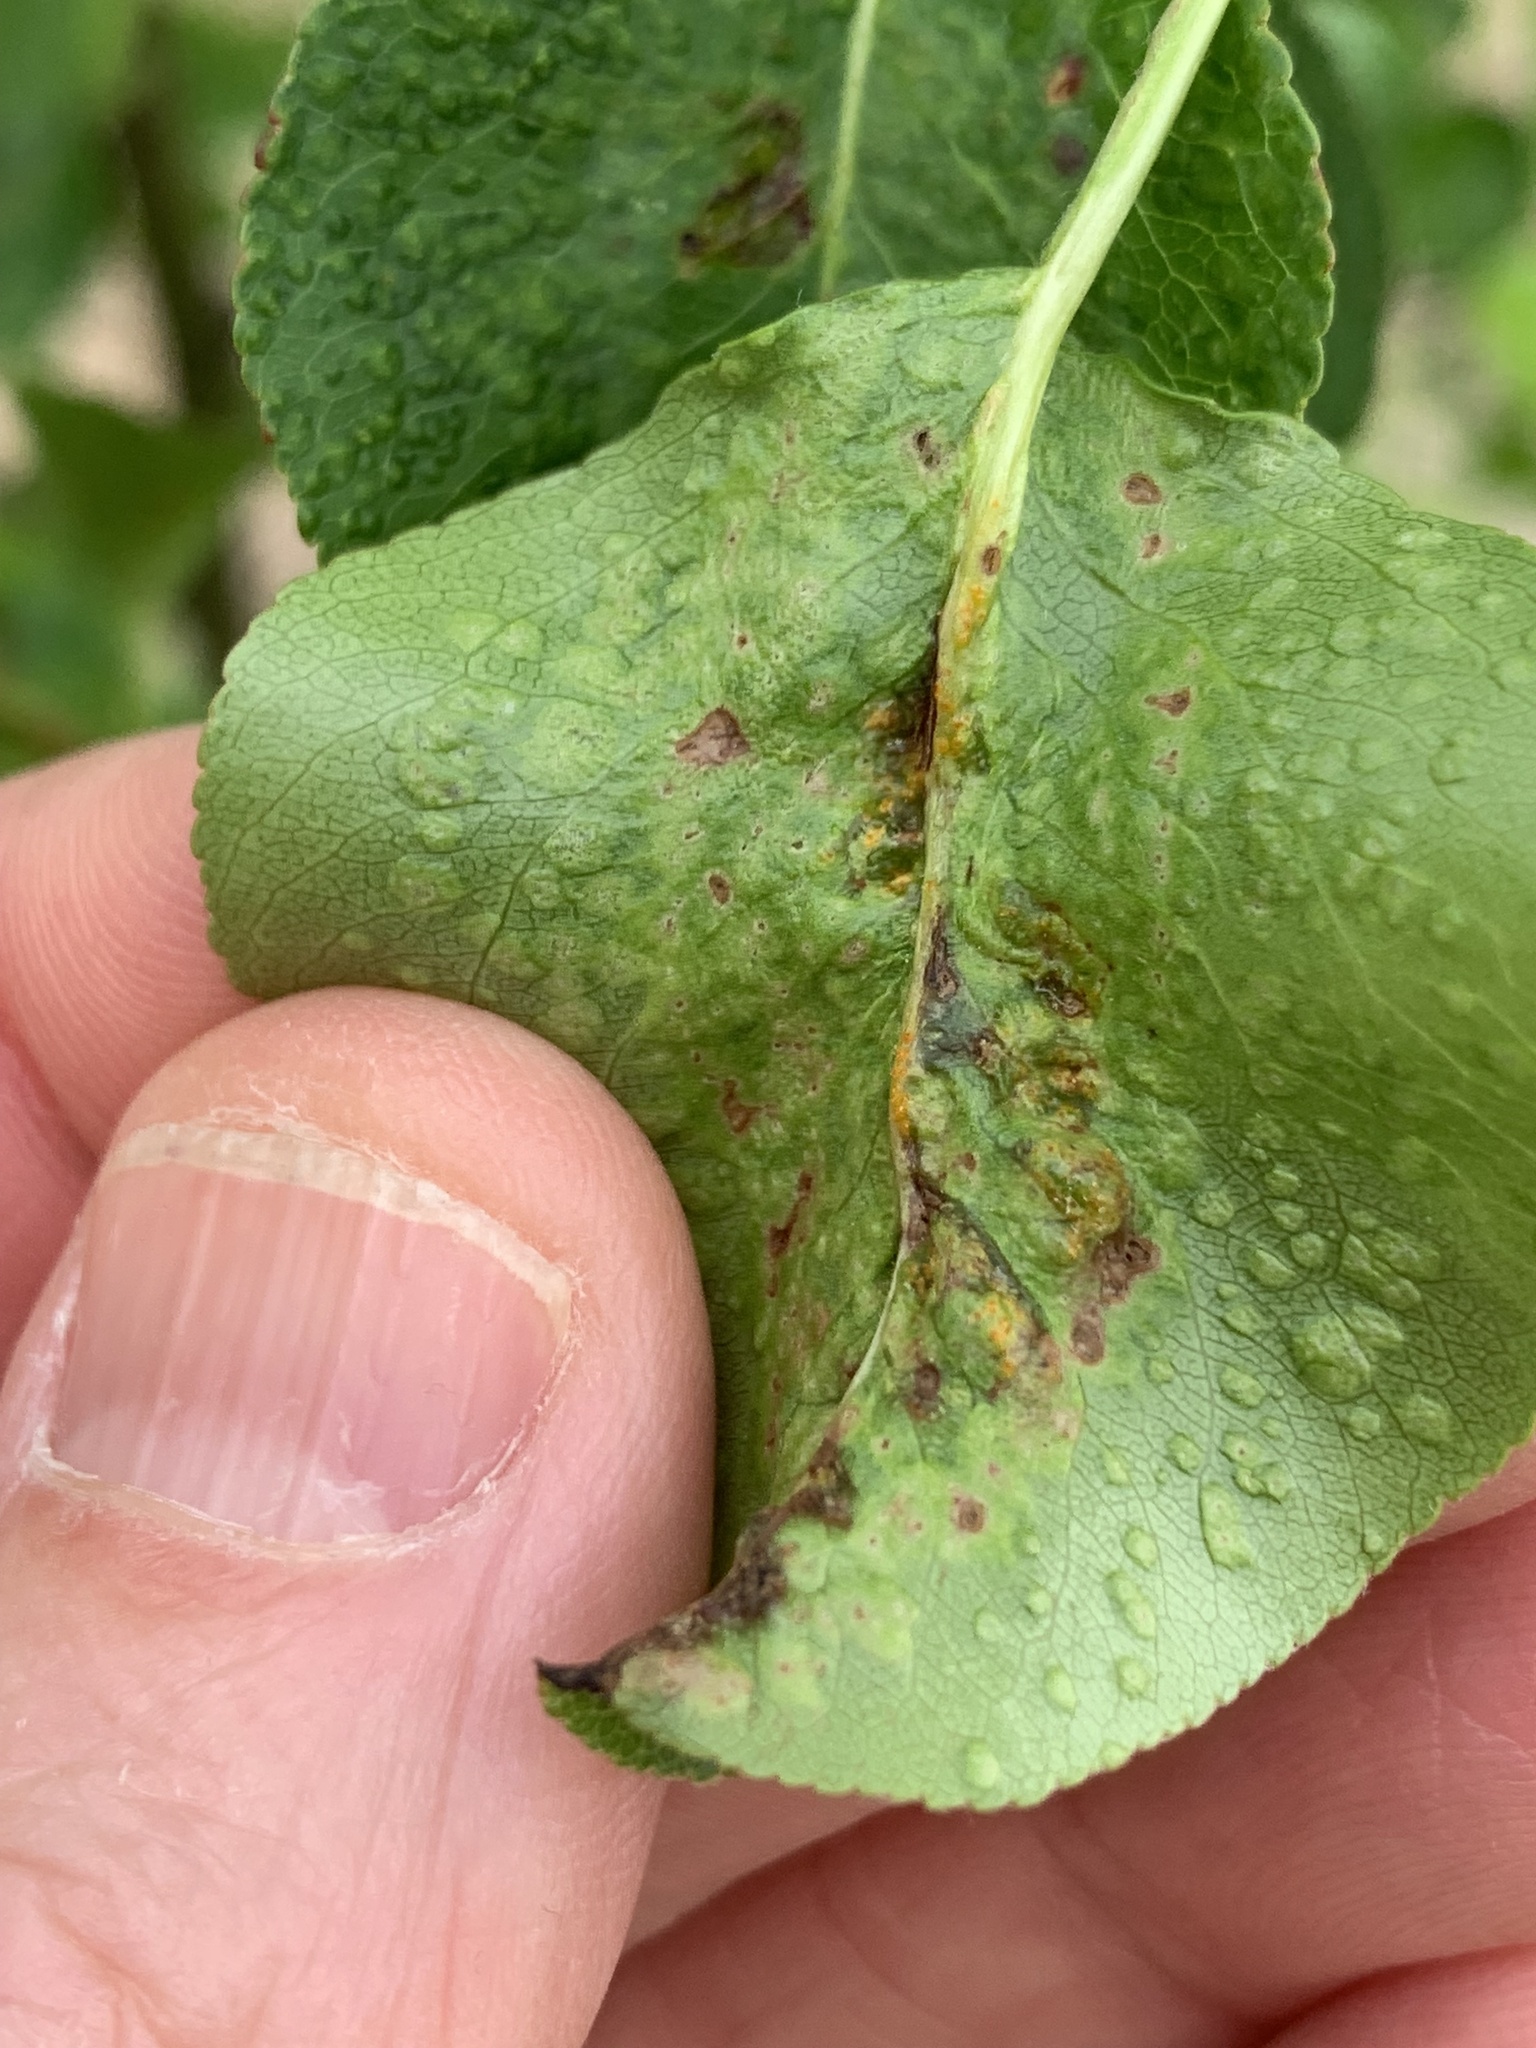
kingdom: Animalia
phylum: Arthropoda
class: Arachnida
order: Trombidiformes
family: Eriophyidae
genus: Eriophyes
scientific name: Eriophyes pyri
